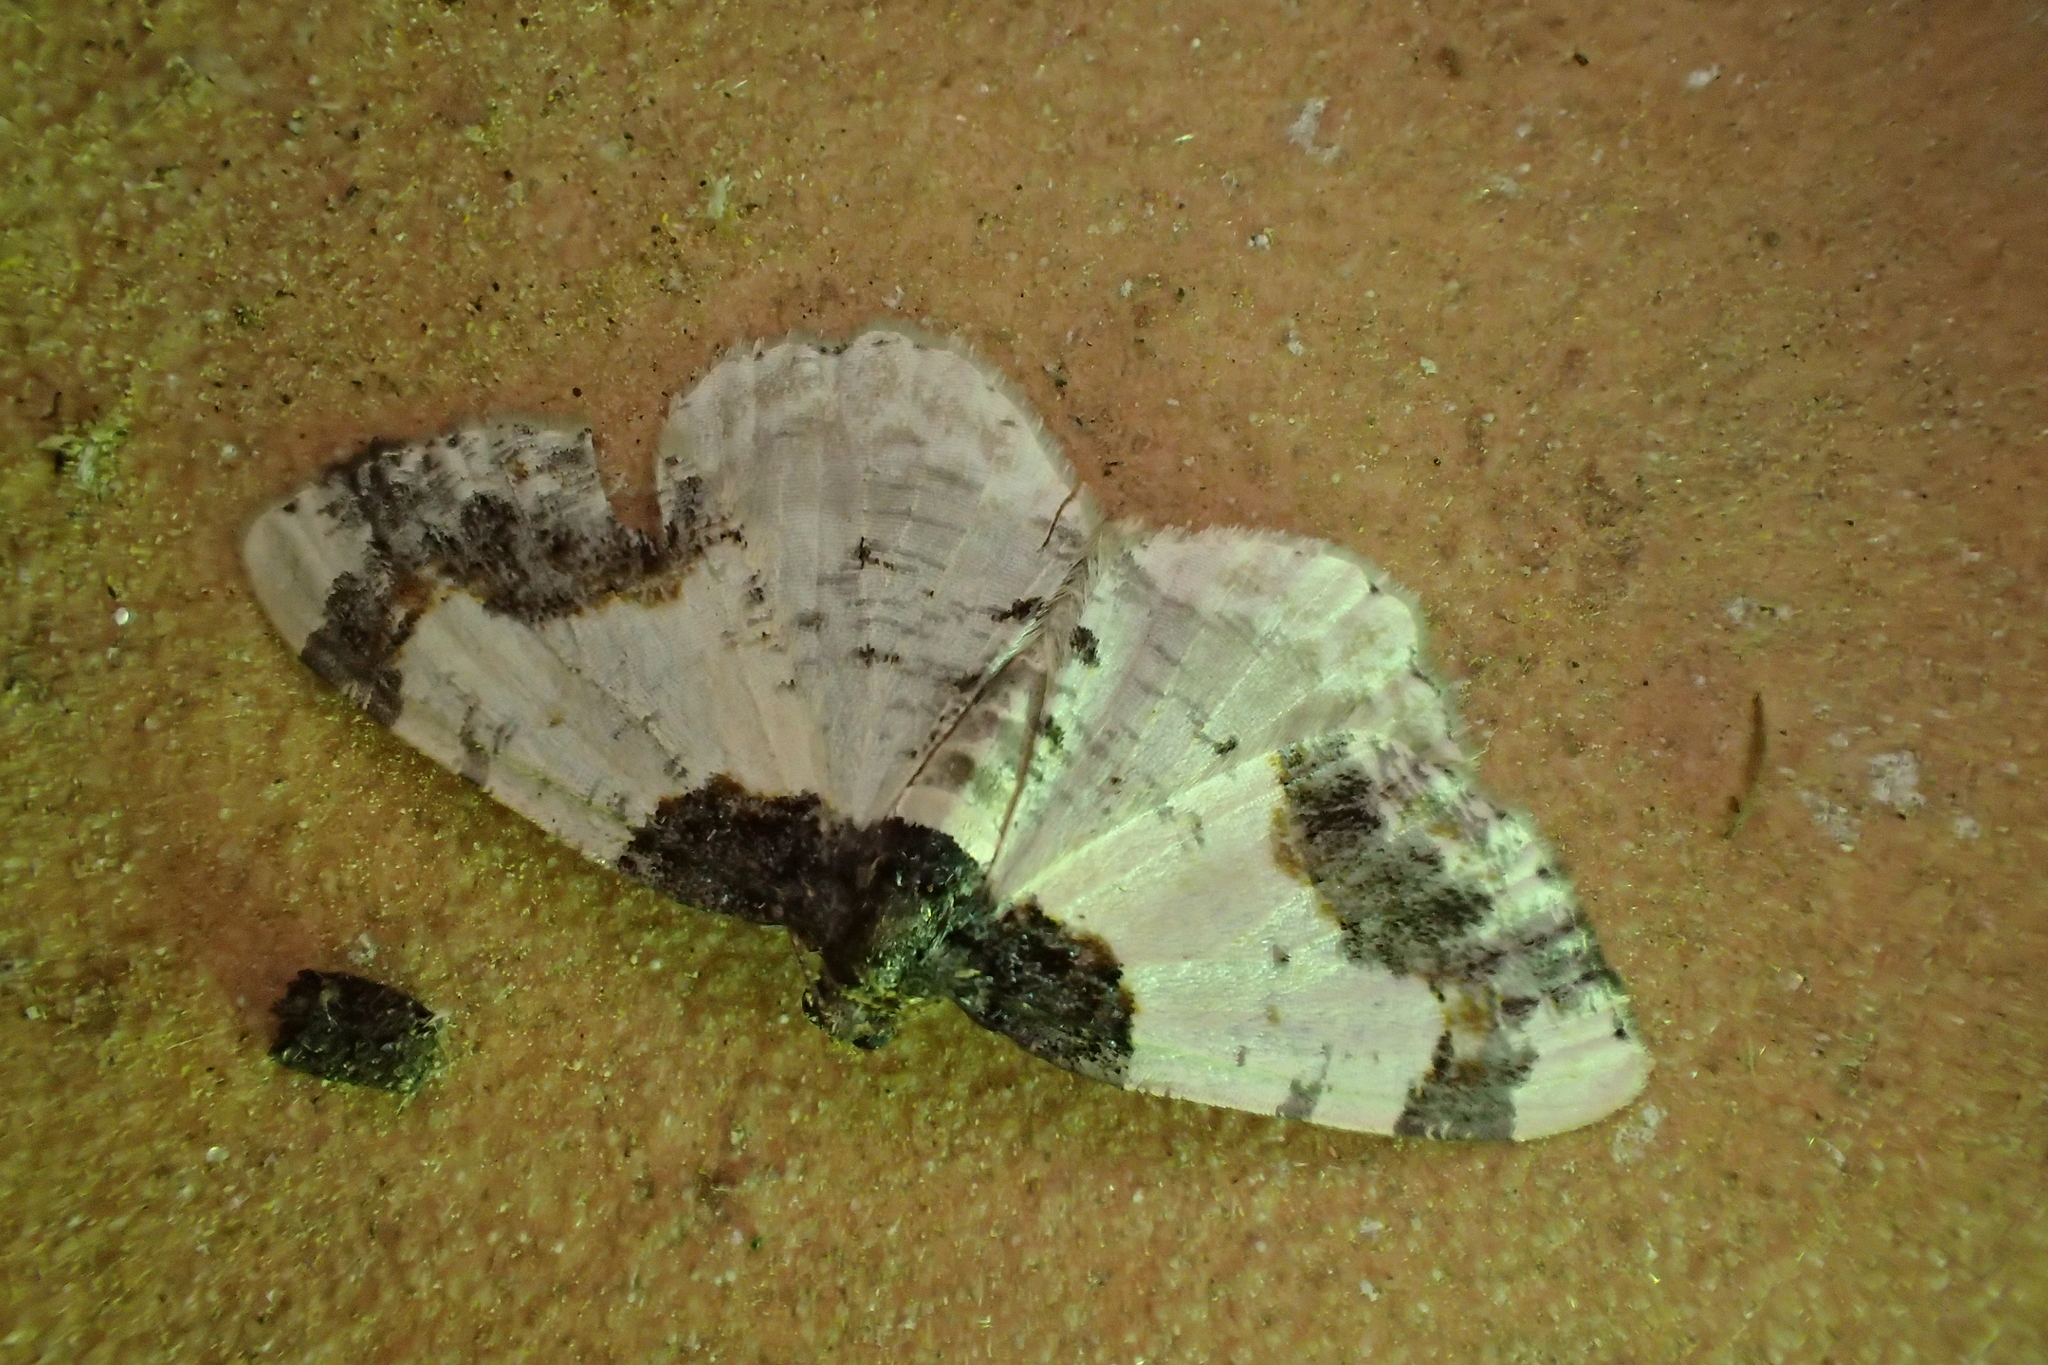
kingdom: Animalia
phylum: Arthropoda
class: Insecta
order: Lepidoptera
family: Geometridae
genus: Ligdia
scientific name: Ligdia adustata
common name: Scorched carpet
